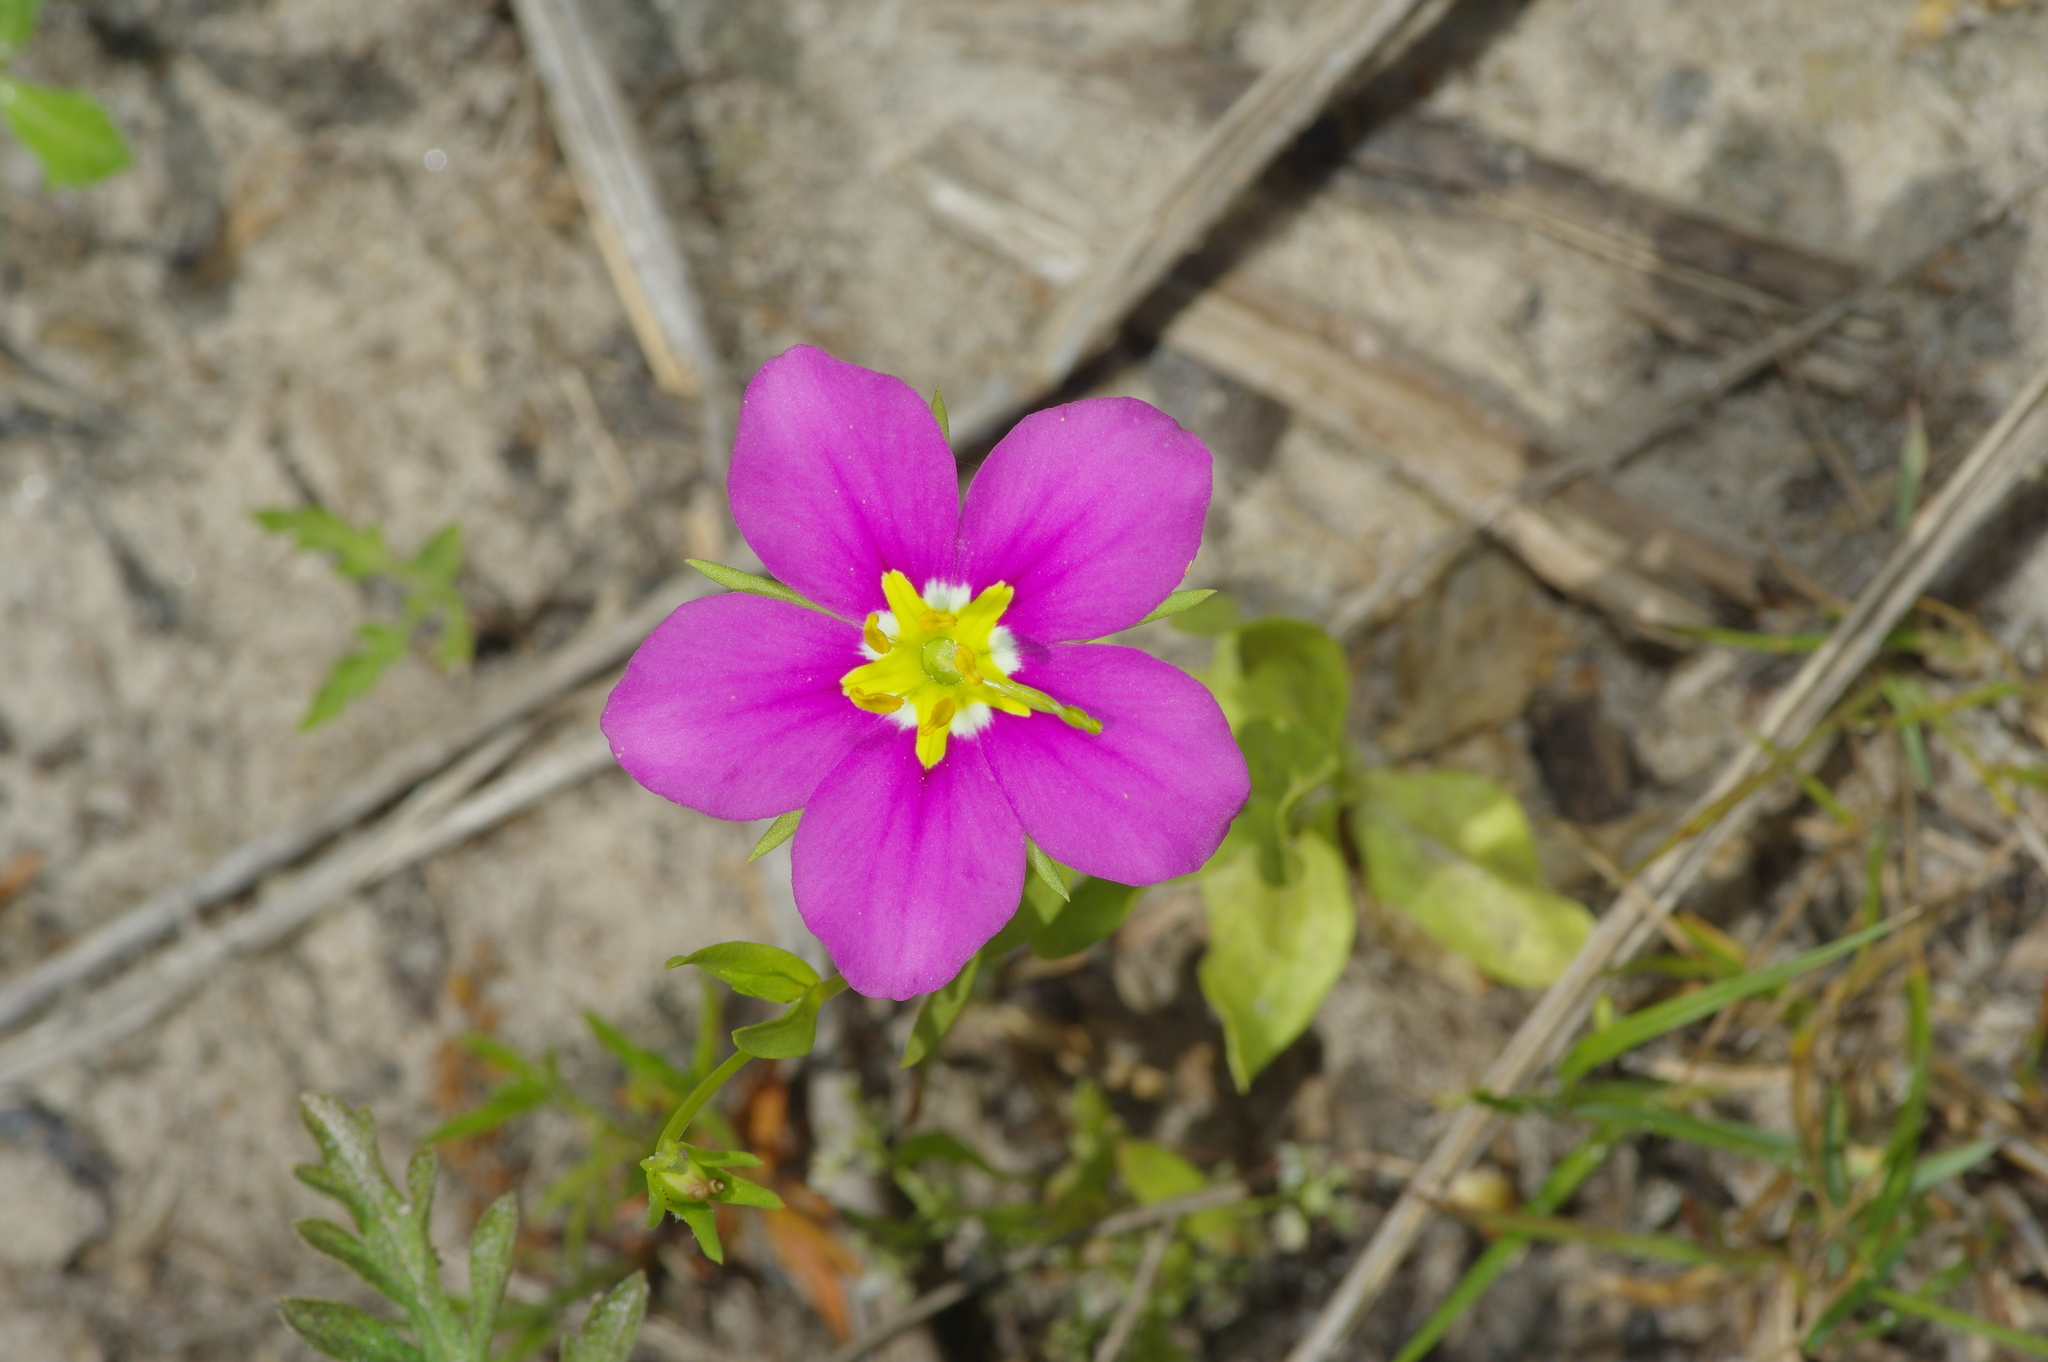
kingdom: Plantae
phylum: Tracheophyta
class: Magnoliopsida
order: Gentianales
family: Gentianaceae
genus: Sabatia
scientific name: Sabatia campestris
